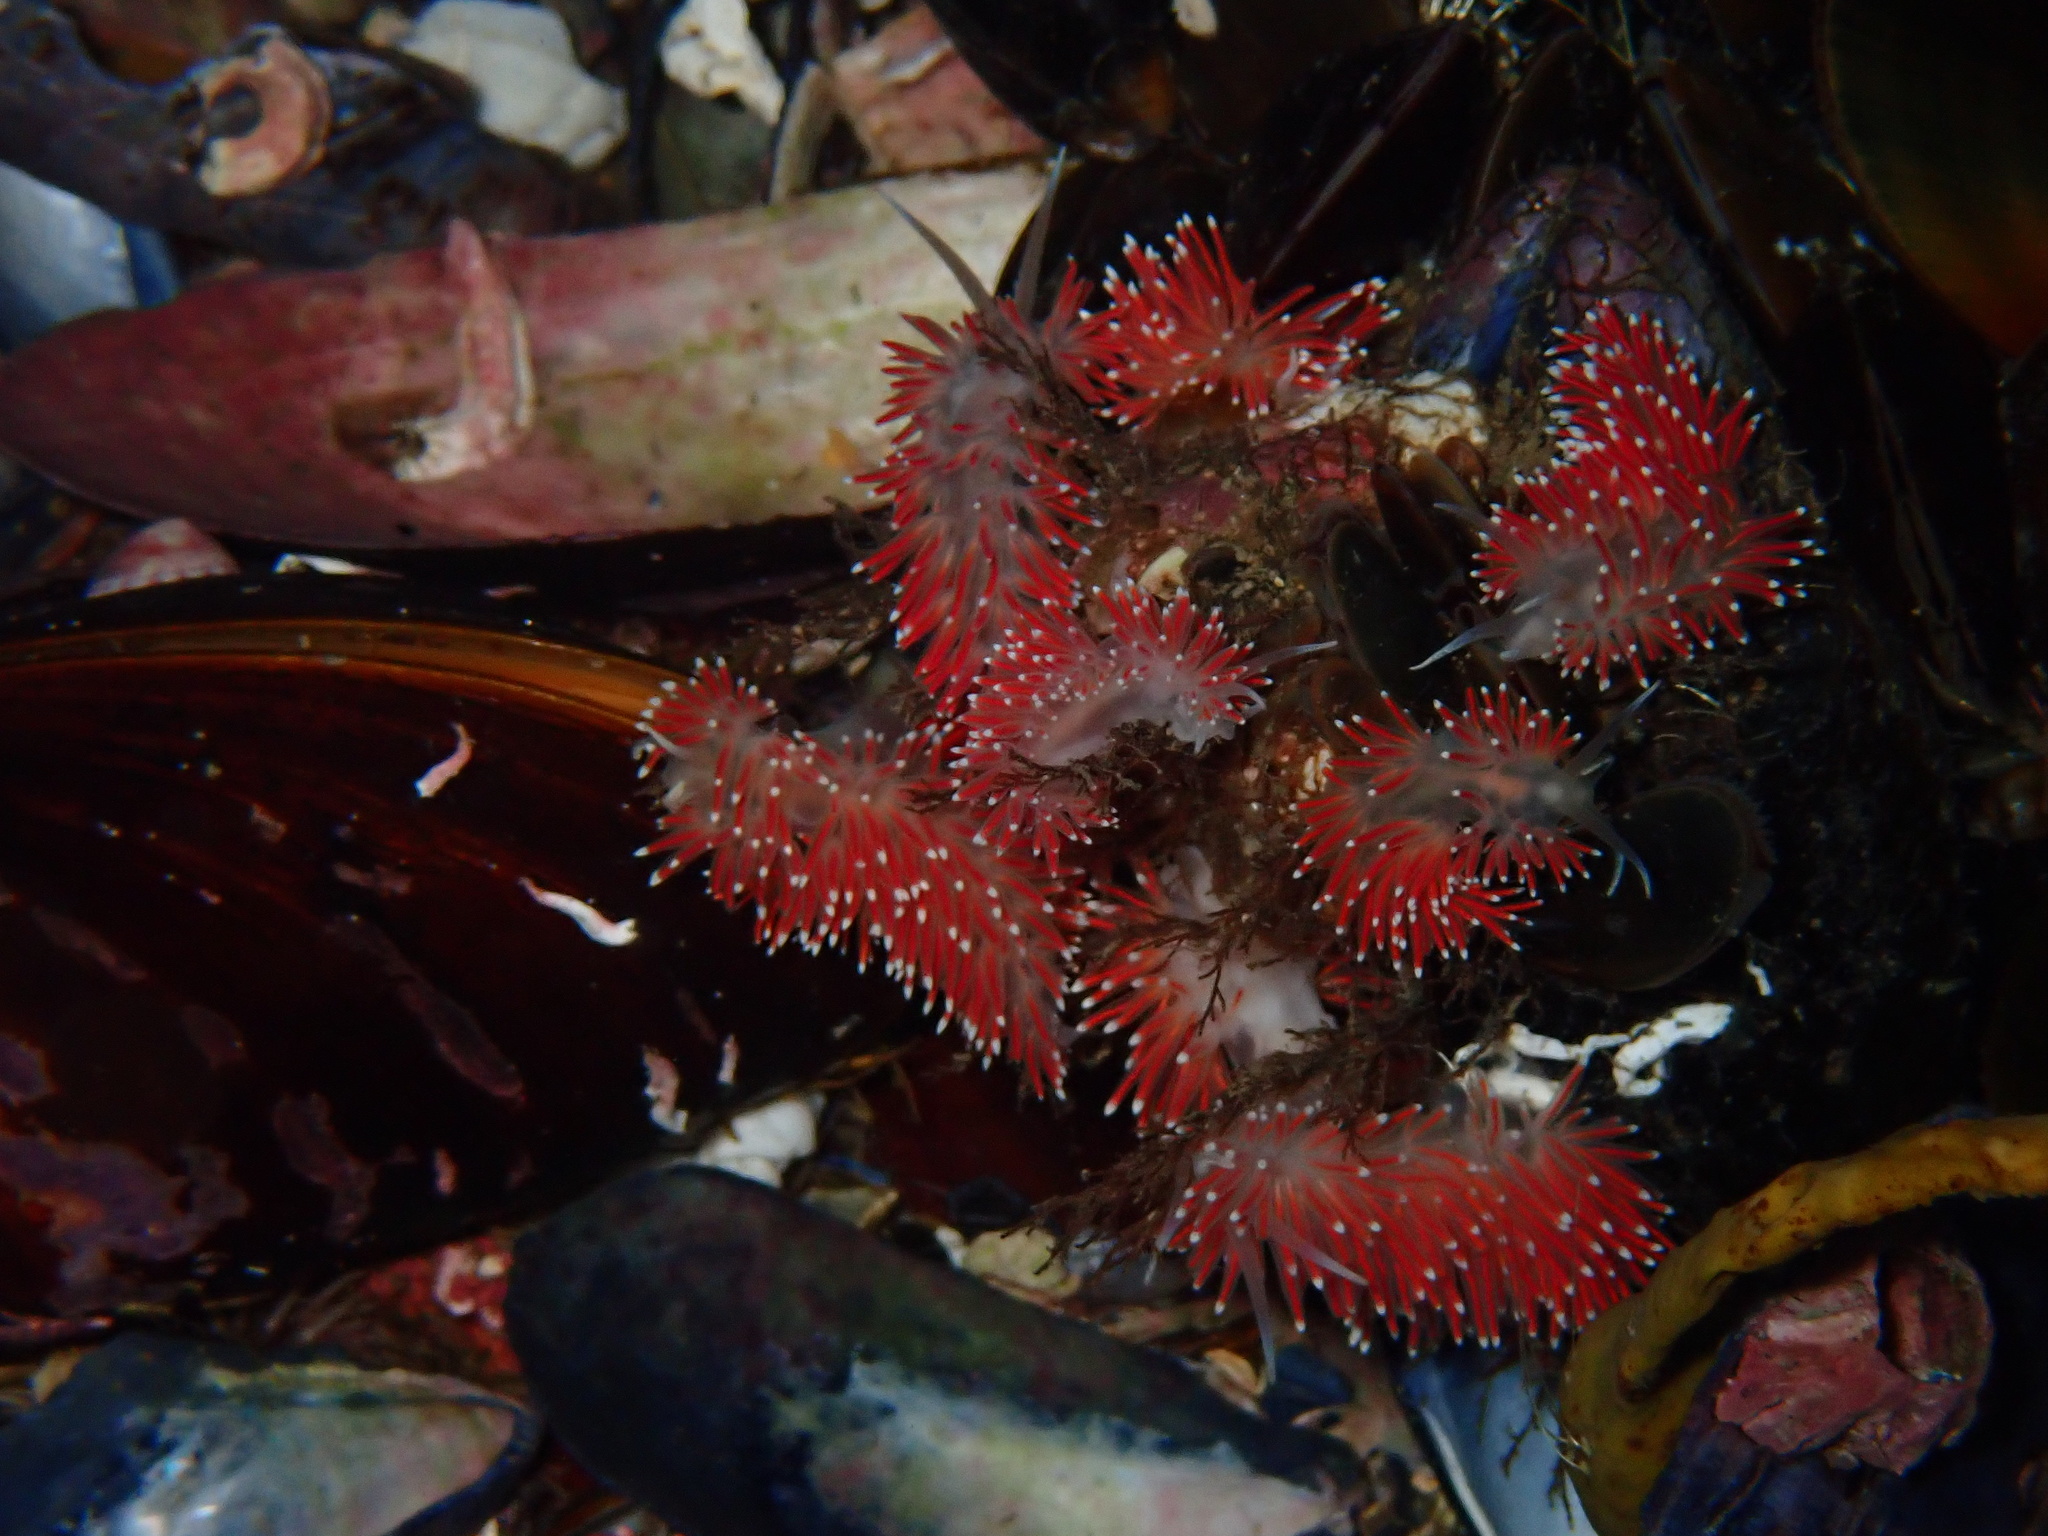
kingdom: Animalia
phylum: Mollusca
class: Gastropoda
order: Nudibranchia
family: Flabellinidae
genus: Carronella
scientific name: Carronella pellucida
